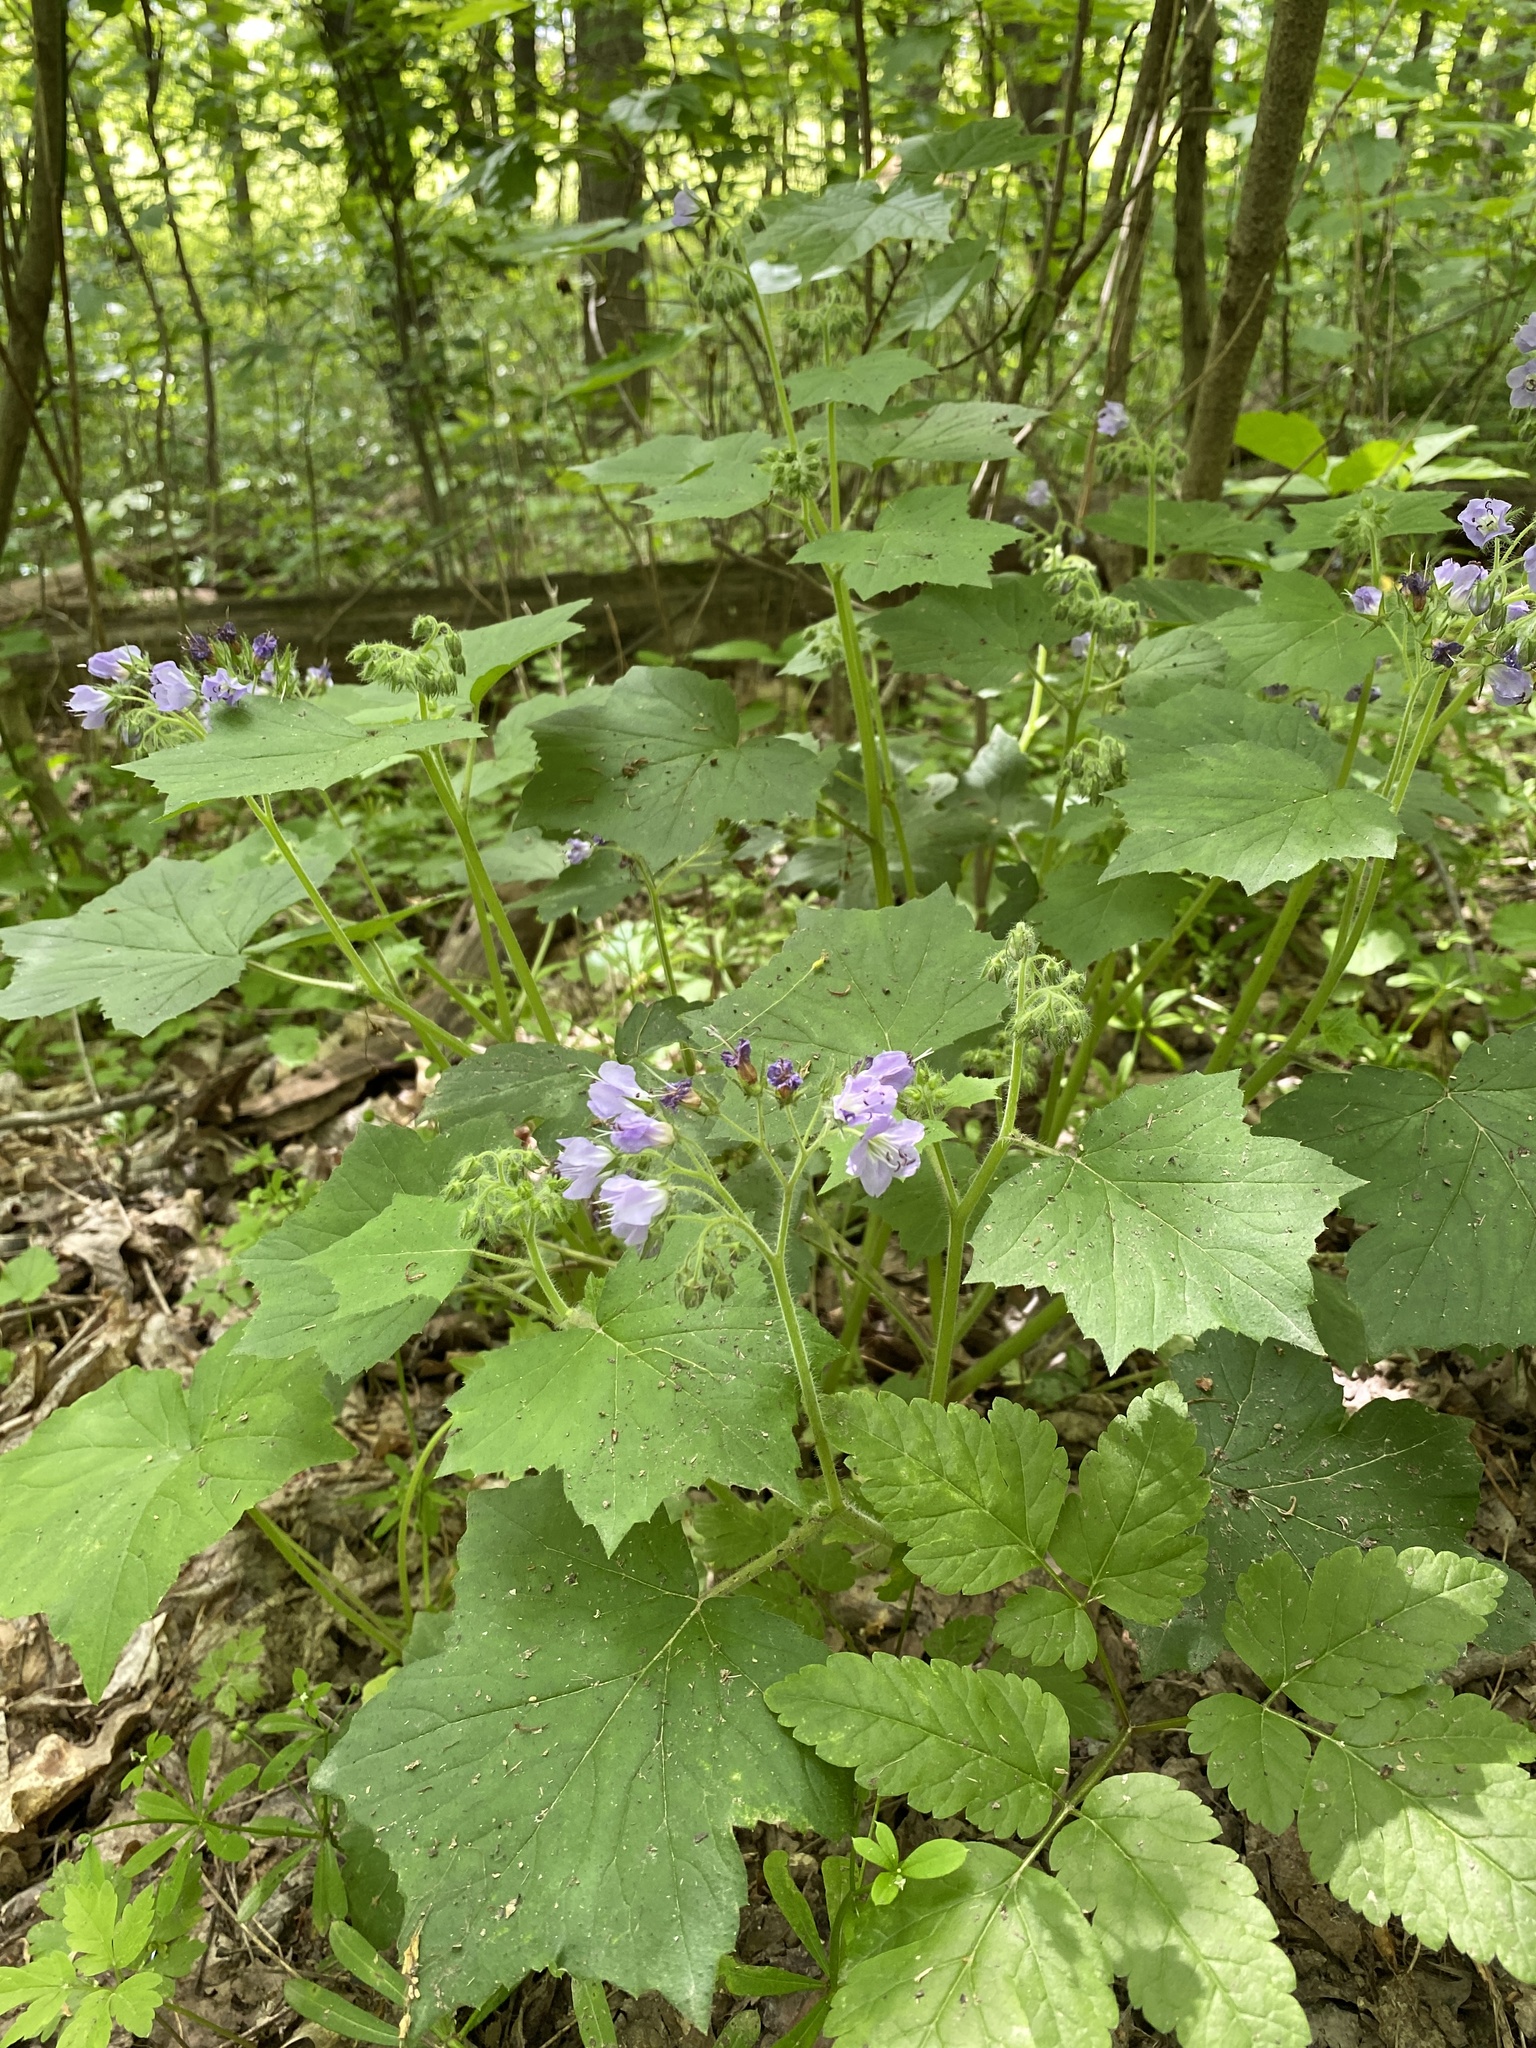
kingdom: Plantae
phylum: Tracheophyta
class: Magnoliopsida
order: Boraginales
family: Hydrophyllaceae
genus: Hydrophyllum
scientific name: Hydrophyllum appendiculatum
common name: Appendaged waterleaf
